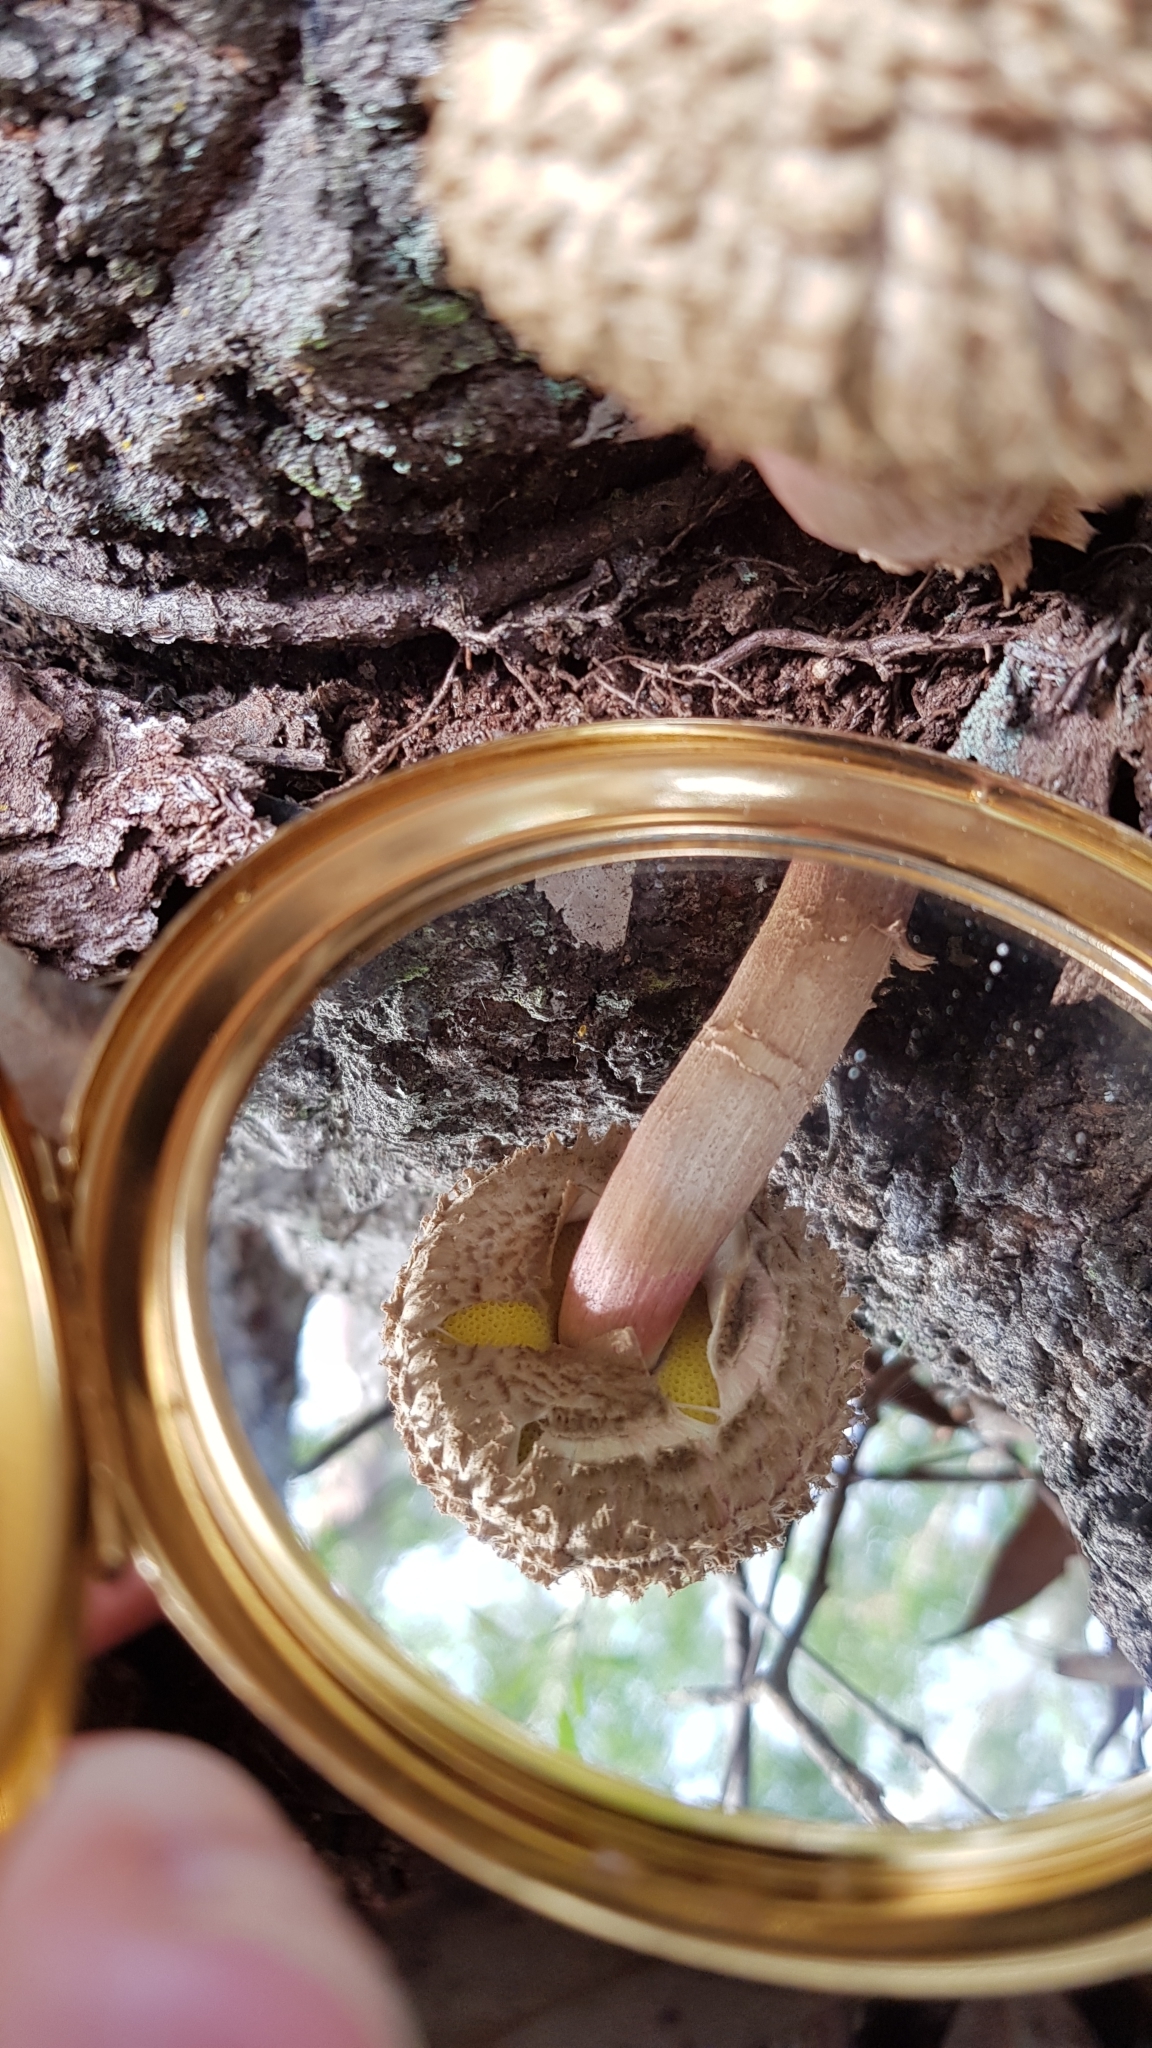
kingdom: Fungi
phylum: Basidiomycota
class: Agaricomycetes
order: Boletales
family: Boletaceae
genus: Boletellus
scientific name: Boletellus deceptivus
